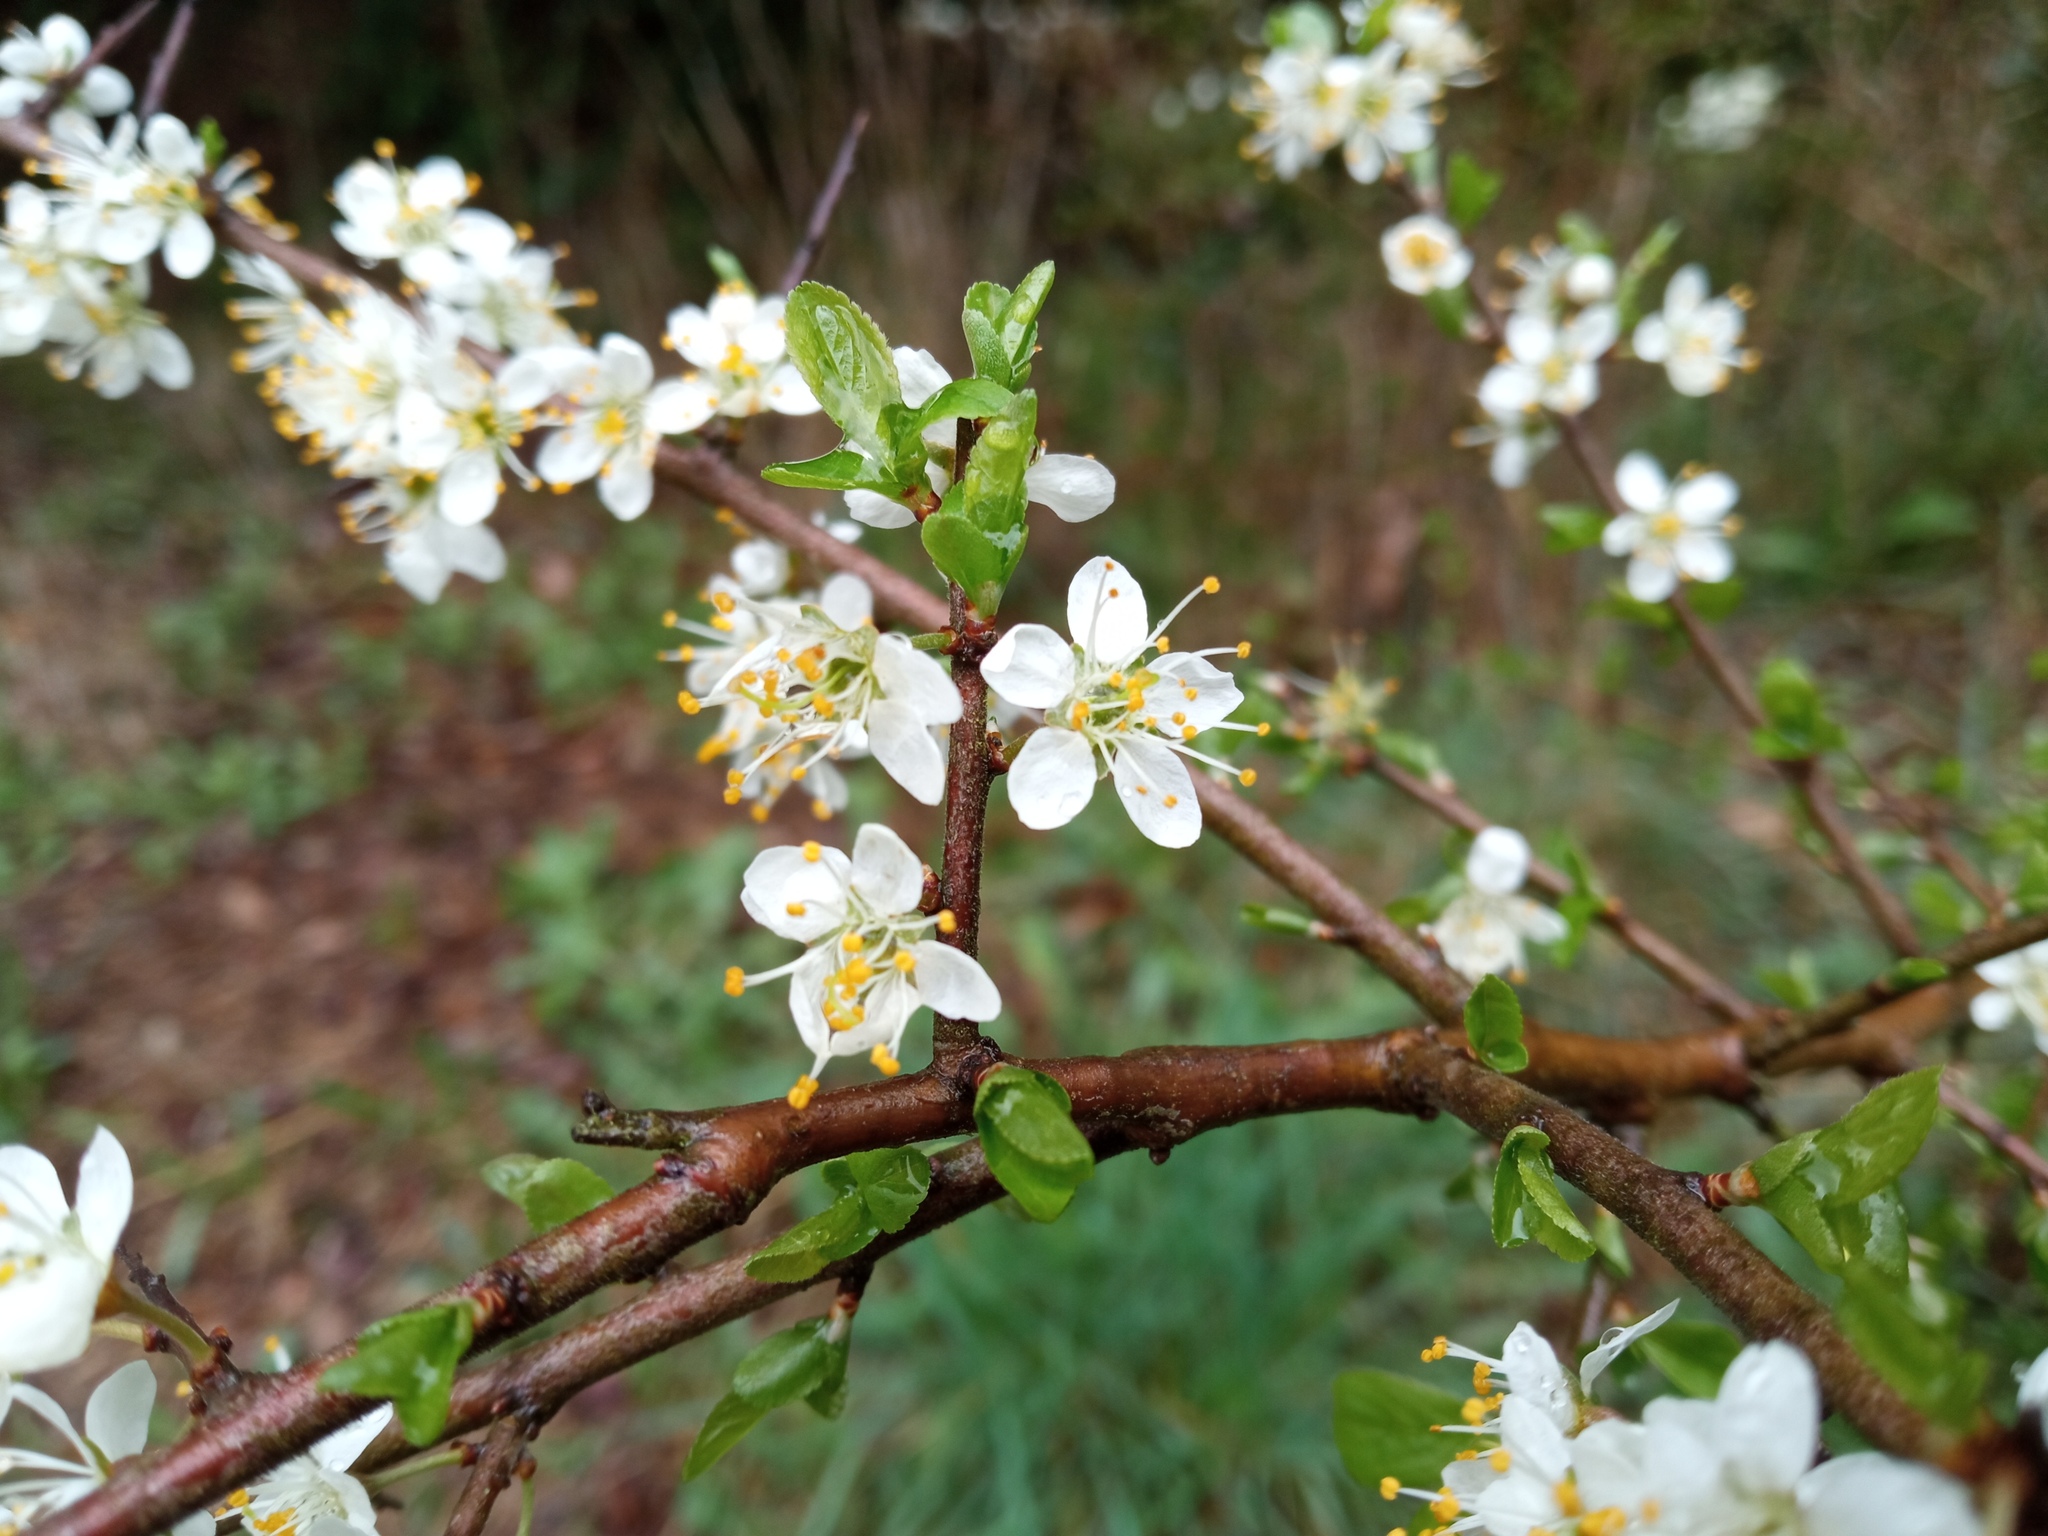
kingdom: Plantae
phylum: Tracheophyta
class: Magnoliopsida
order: Rosales
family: Rosaceae
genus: Prunus
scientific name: Prunus spinosa
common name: Blackthorn
